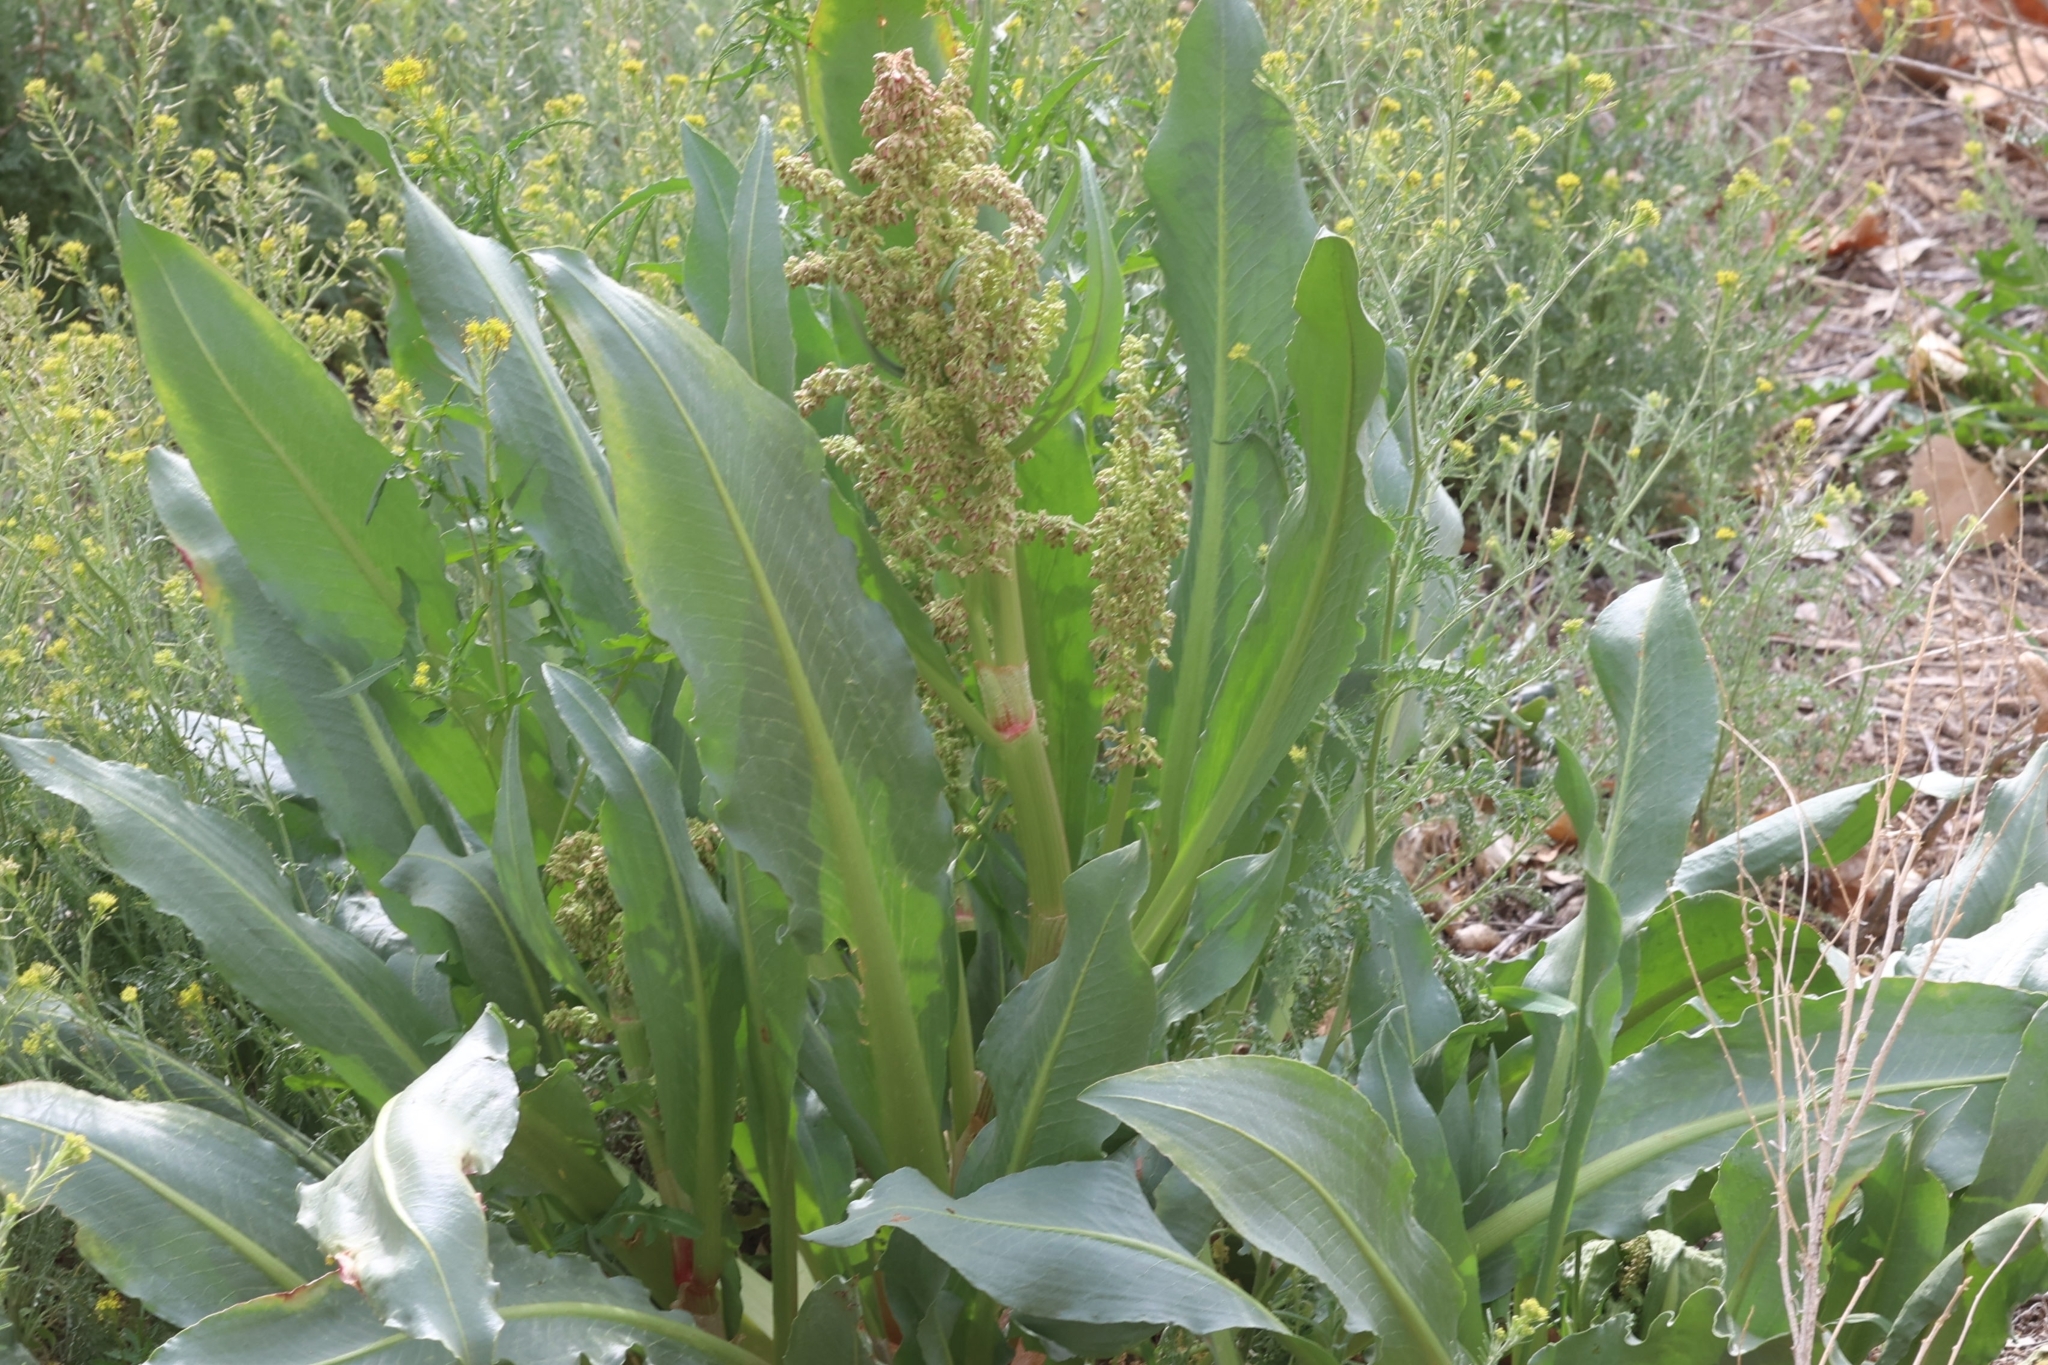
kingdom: Plantae
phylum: Tracheophyta
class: Magnoliopsida
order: Caryophyllales
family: Polygonaceae
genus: Rumex
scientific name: Rumex hymenosepalus
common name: Ganagra
